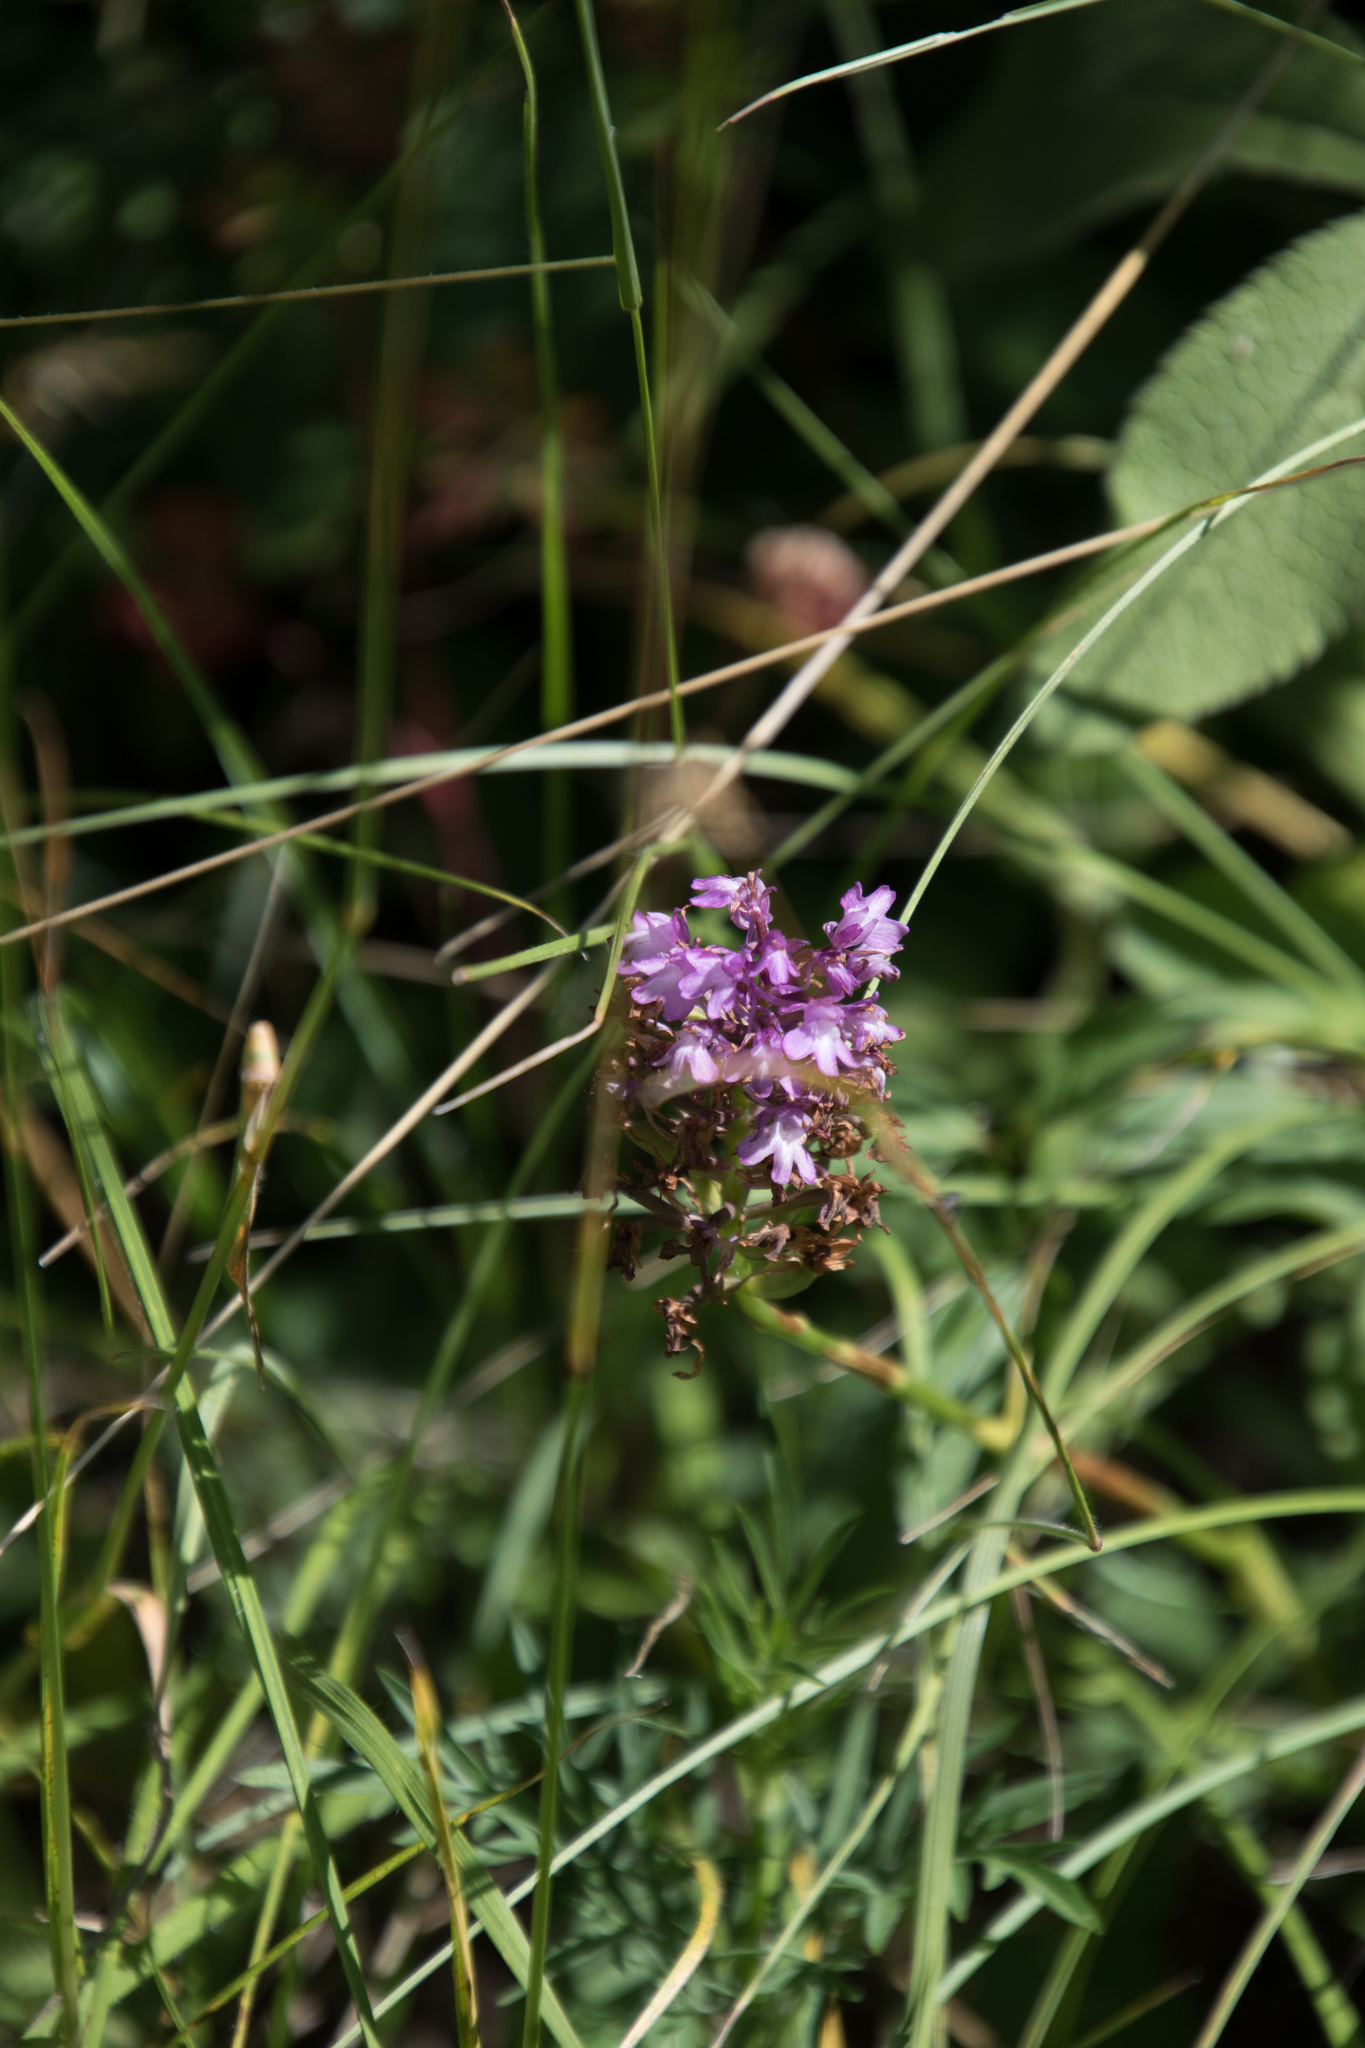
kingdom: Plantae
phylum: Tracheophyta
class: Liliopsida
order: Asparagales
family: Orchidaceae
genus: Anacamptis
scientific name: Anacamptis pyramidalis
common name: Pyramidal orchid
